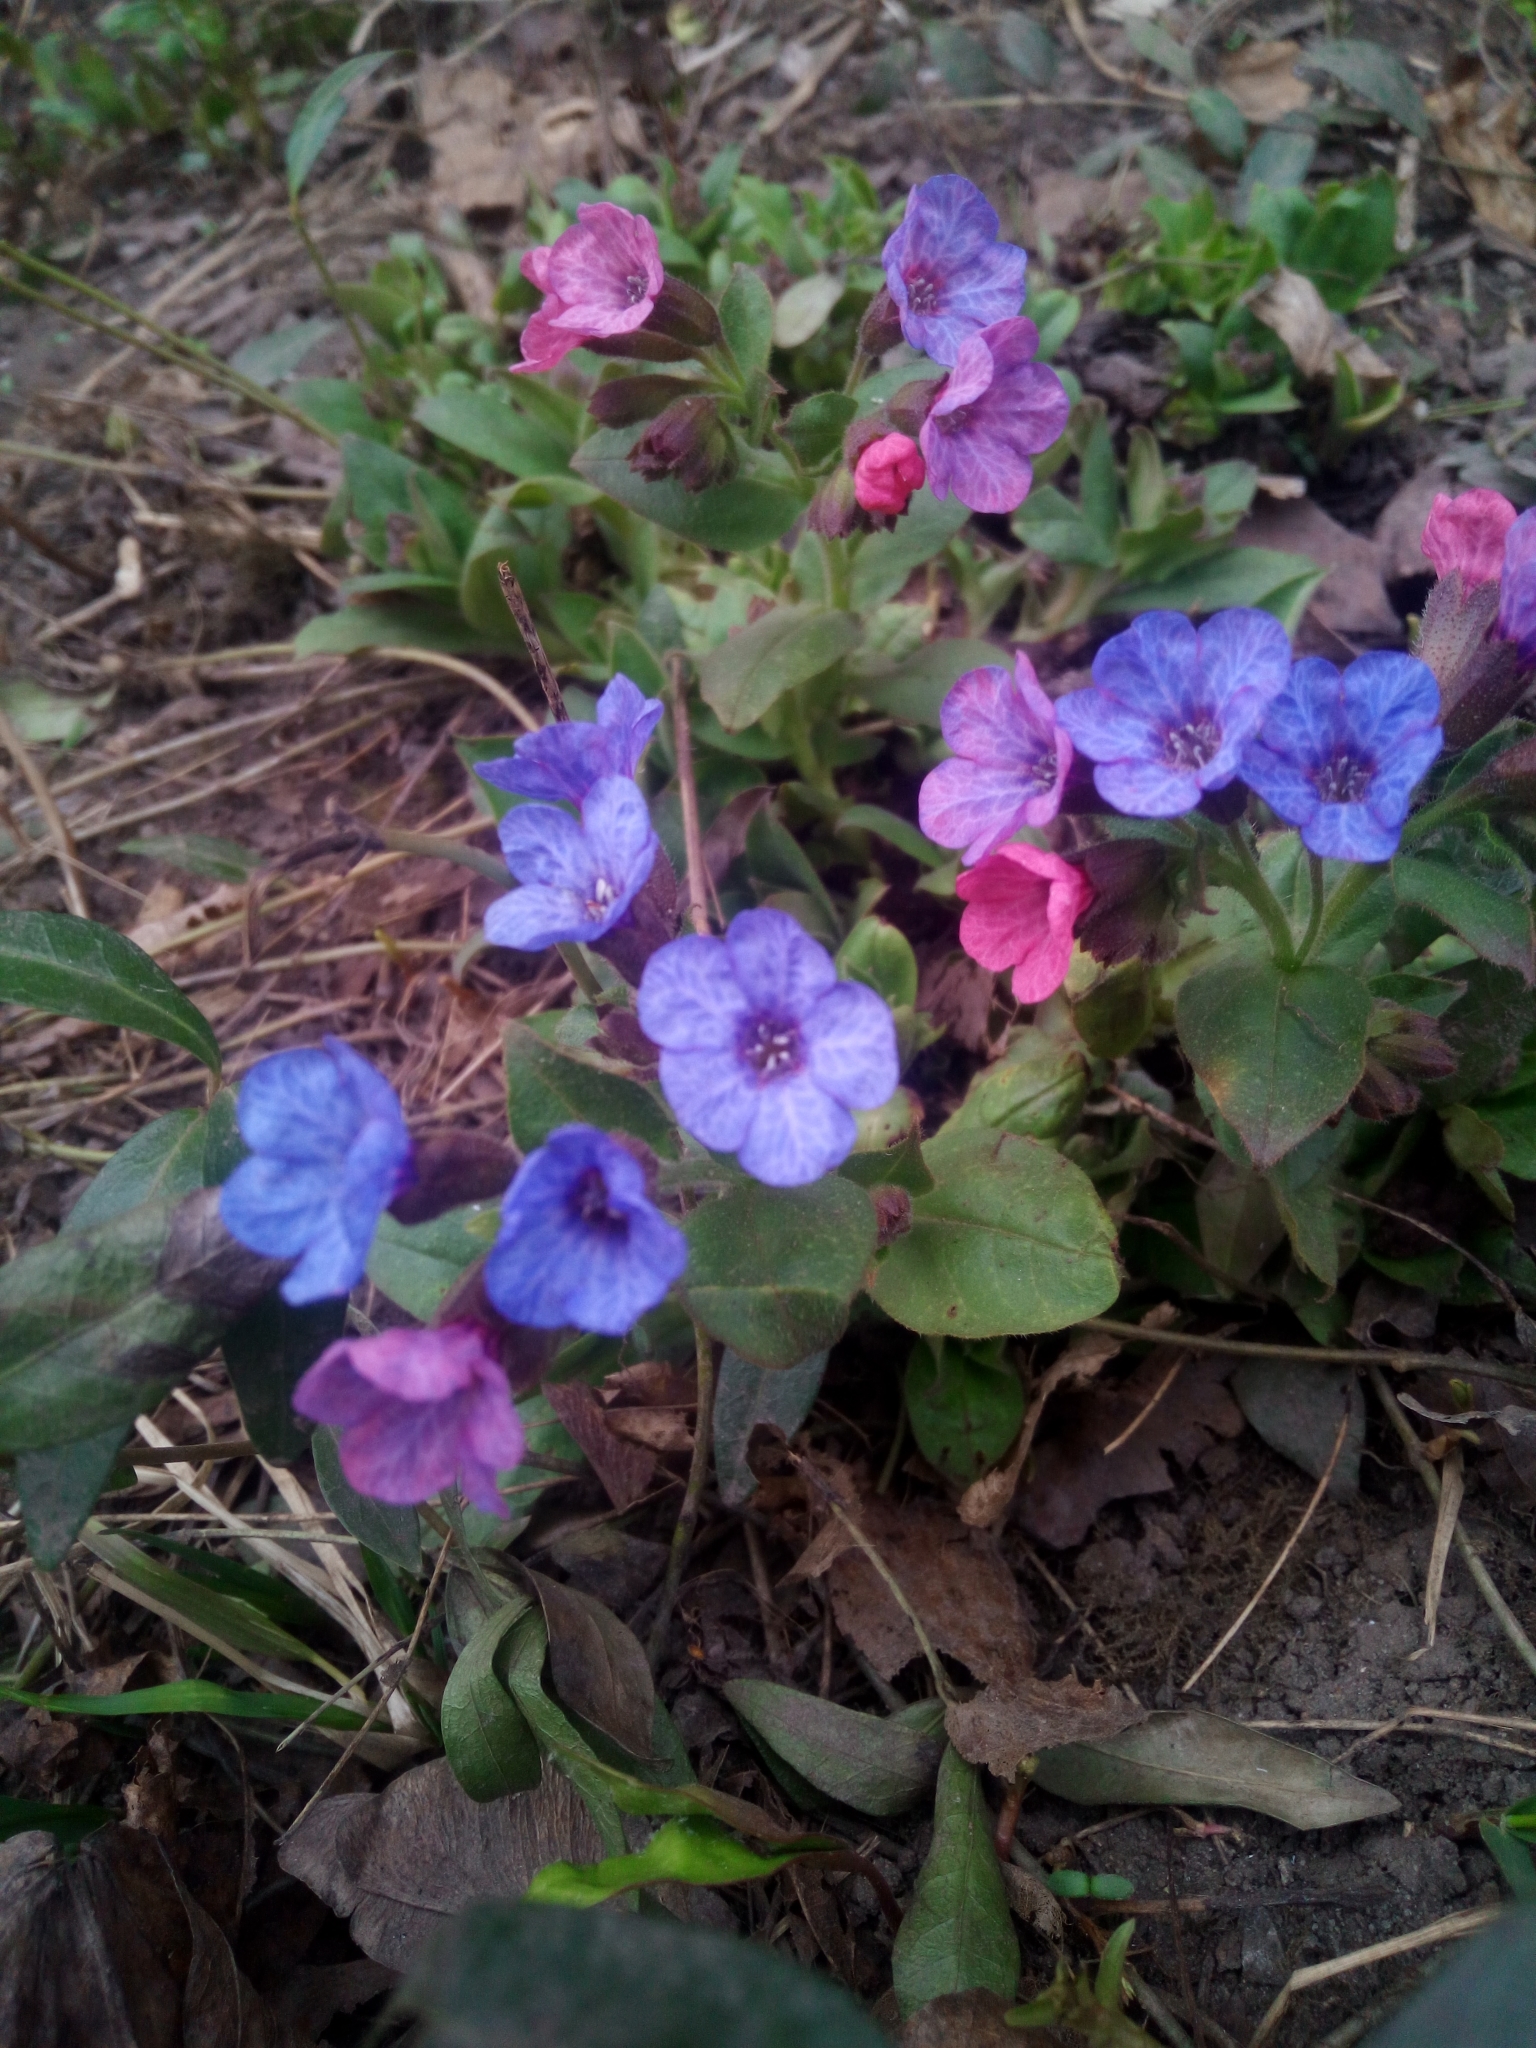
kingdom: Plantae
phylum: Tracheophyta
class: Magnoliopsida
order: Boraginales
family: Boraginaceae
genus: Pulmonaria
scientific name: Pulmonaria obscura
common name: Suffolk lungwort
